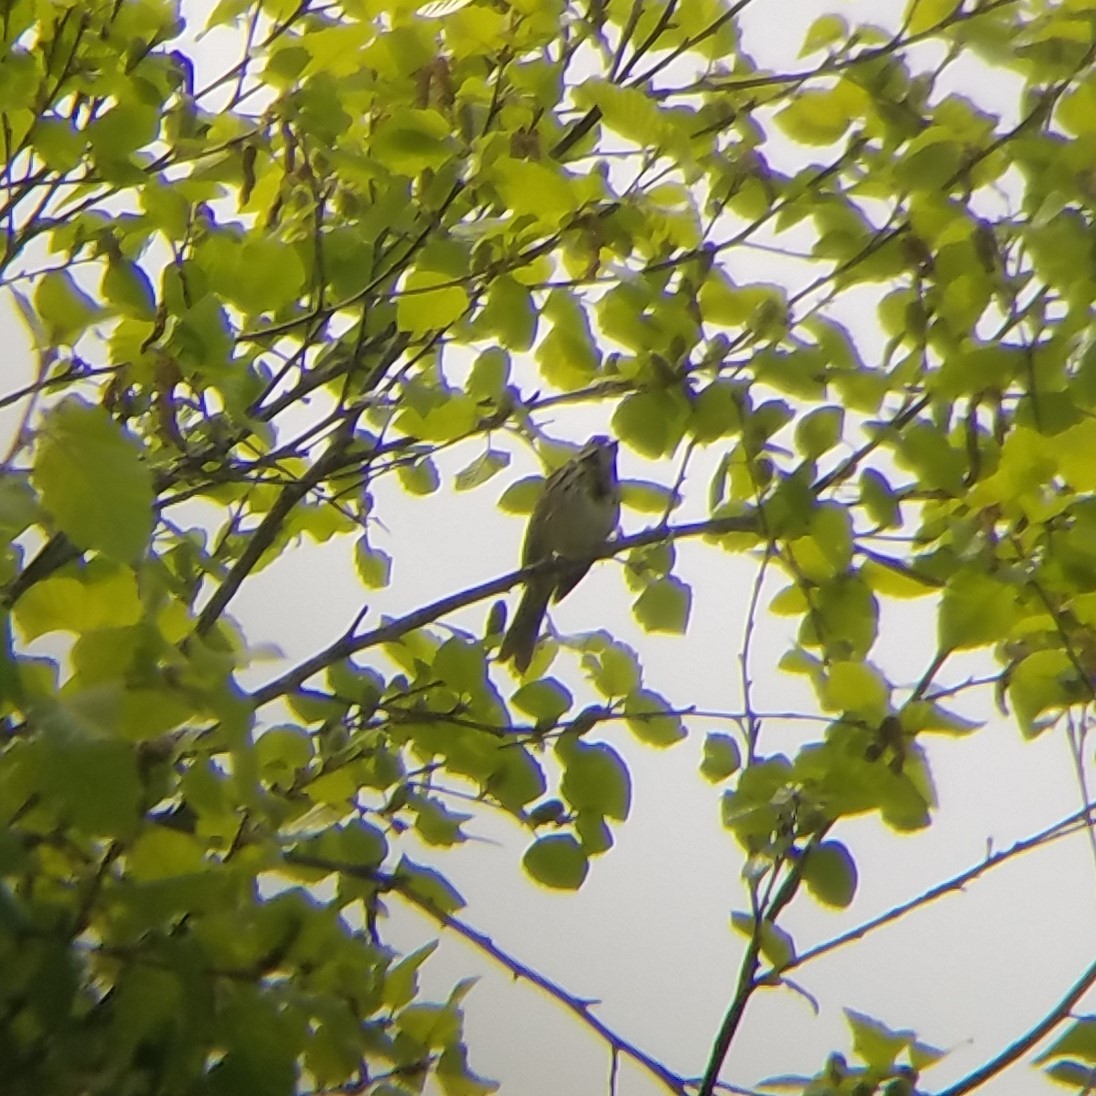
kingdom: Animalia
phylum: Chordata
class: Aves
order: Passeriformes
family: Passerellidae
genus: Melospiza
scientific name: Melospiza melodia
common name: Song sparrow
